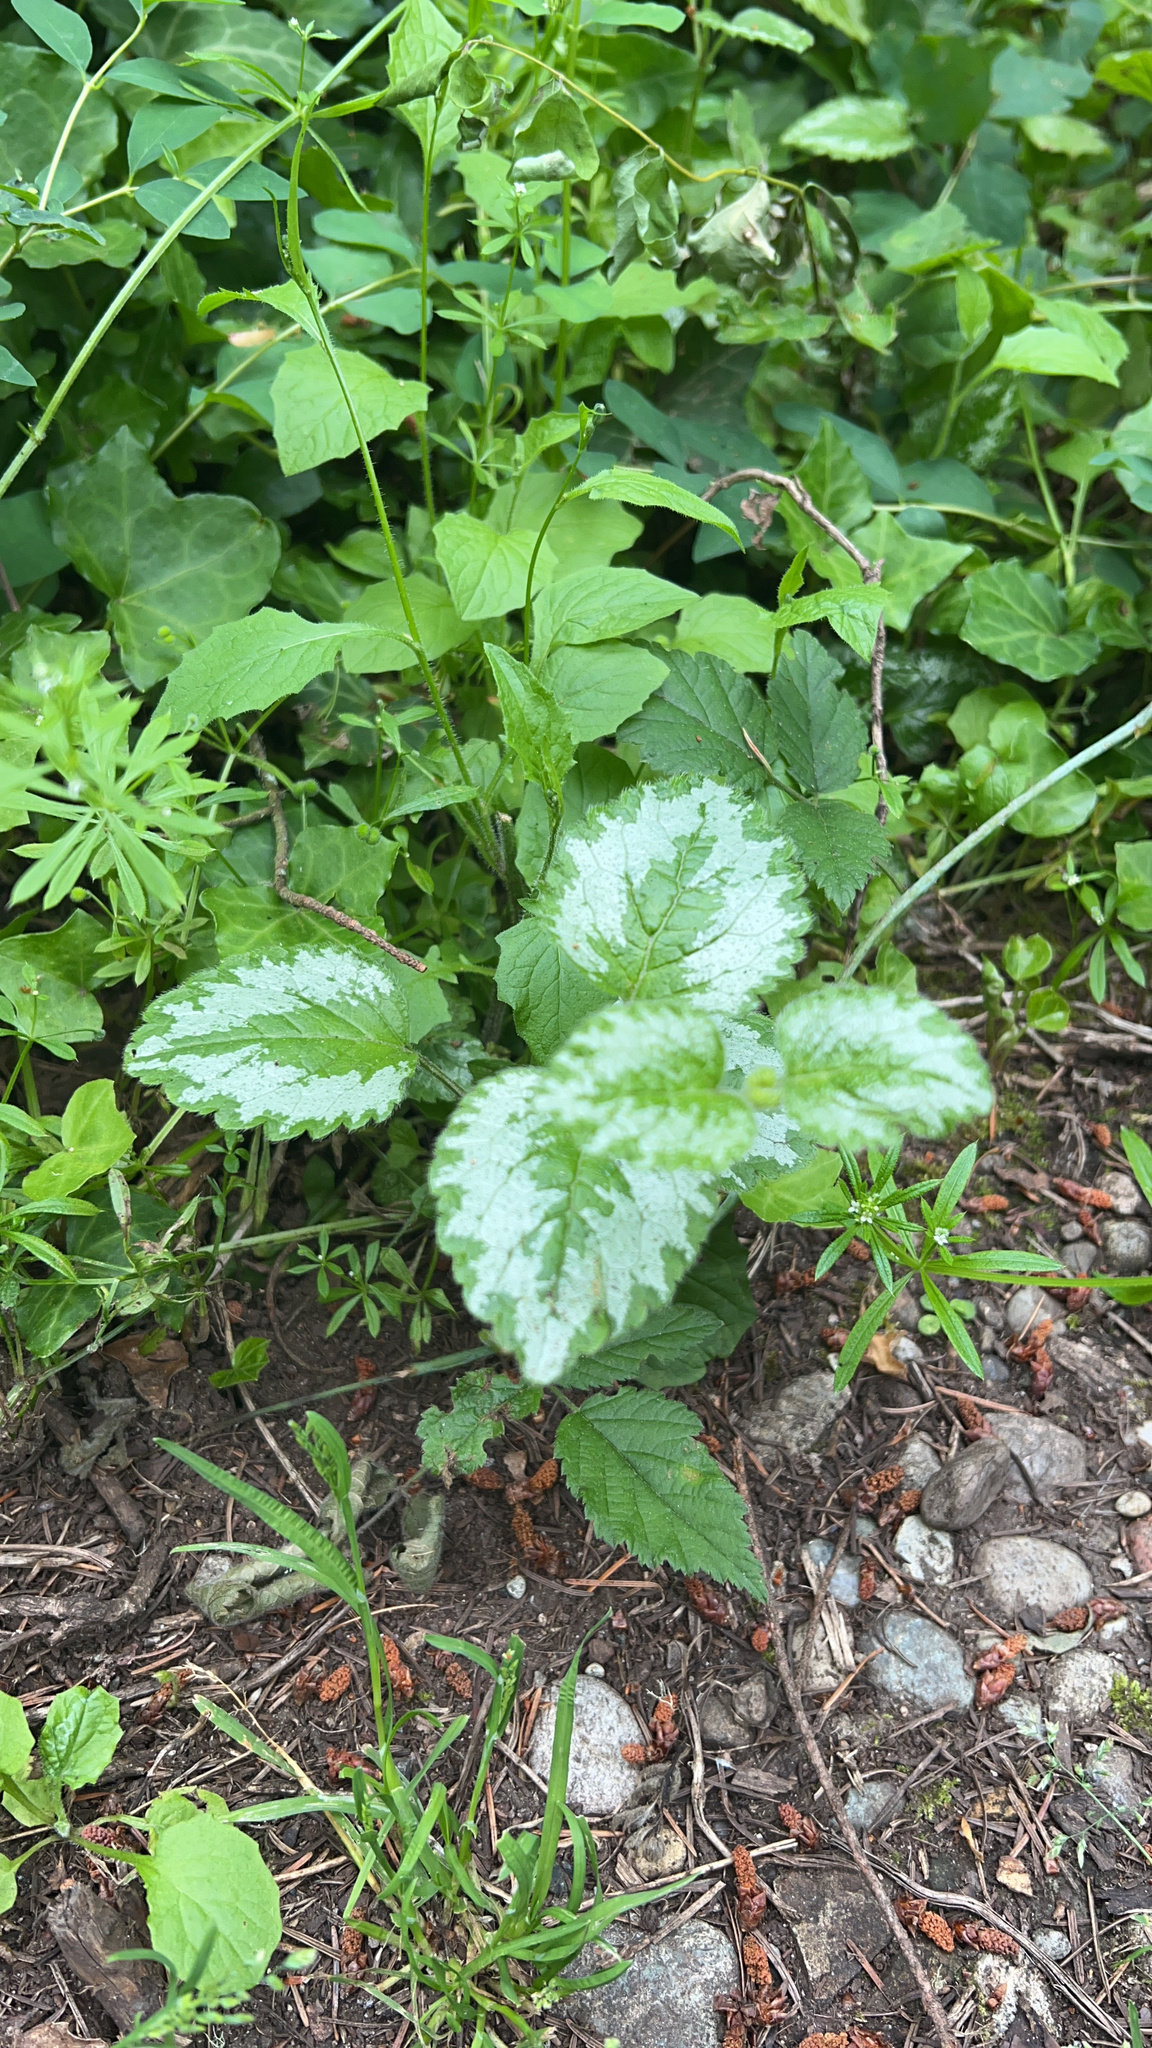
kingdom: Plantae
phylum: Tracheophyta
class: Magnoliopsida
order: Lamiales
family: Lamiaceae
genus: Lamium
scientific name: Lamium galeobdolon
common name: Yellow archangel
